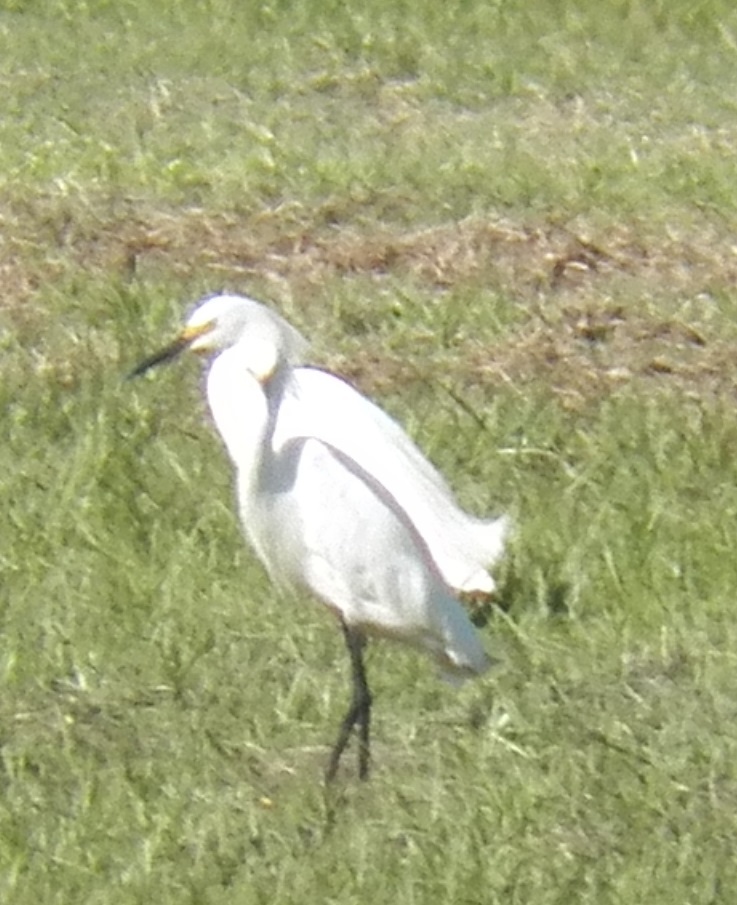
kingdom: Animalia
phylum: Chordata
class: Aves
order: Pelecaniformes
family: Ardeidae
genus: Egretta
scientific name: Egretta thula
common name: Snowy egret
